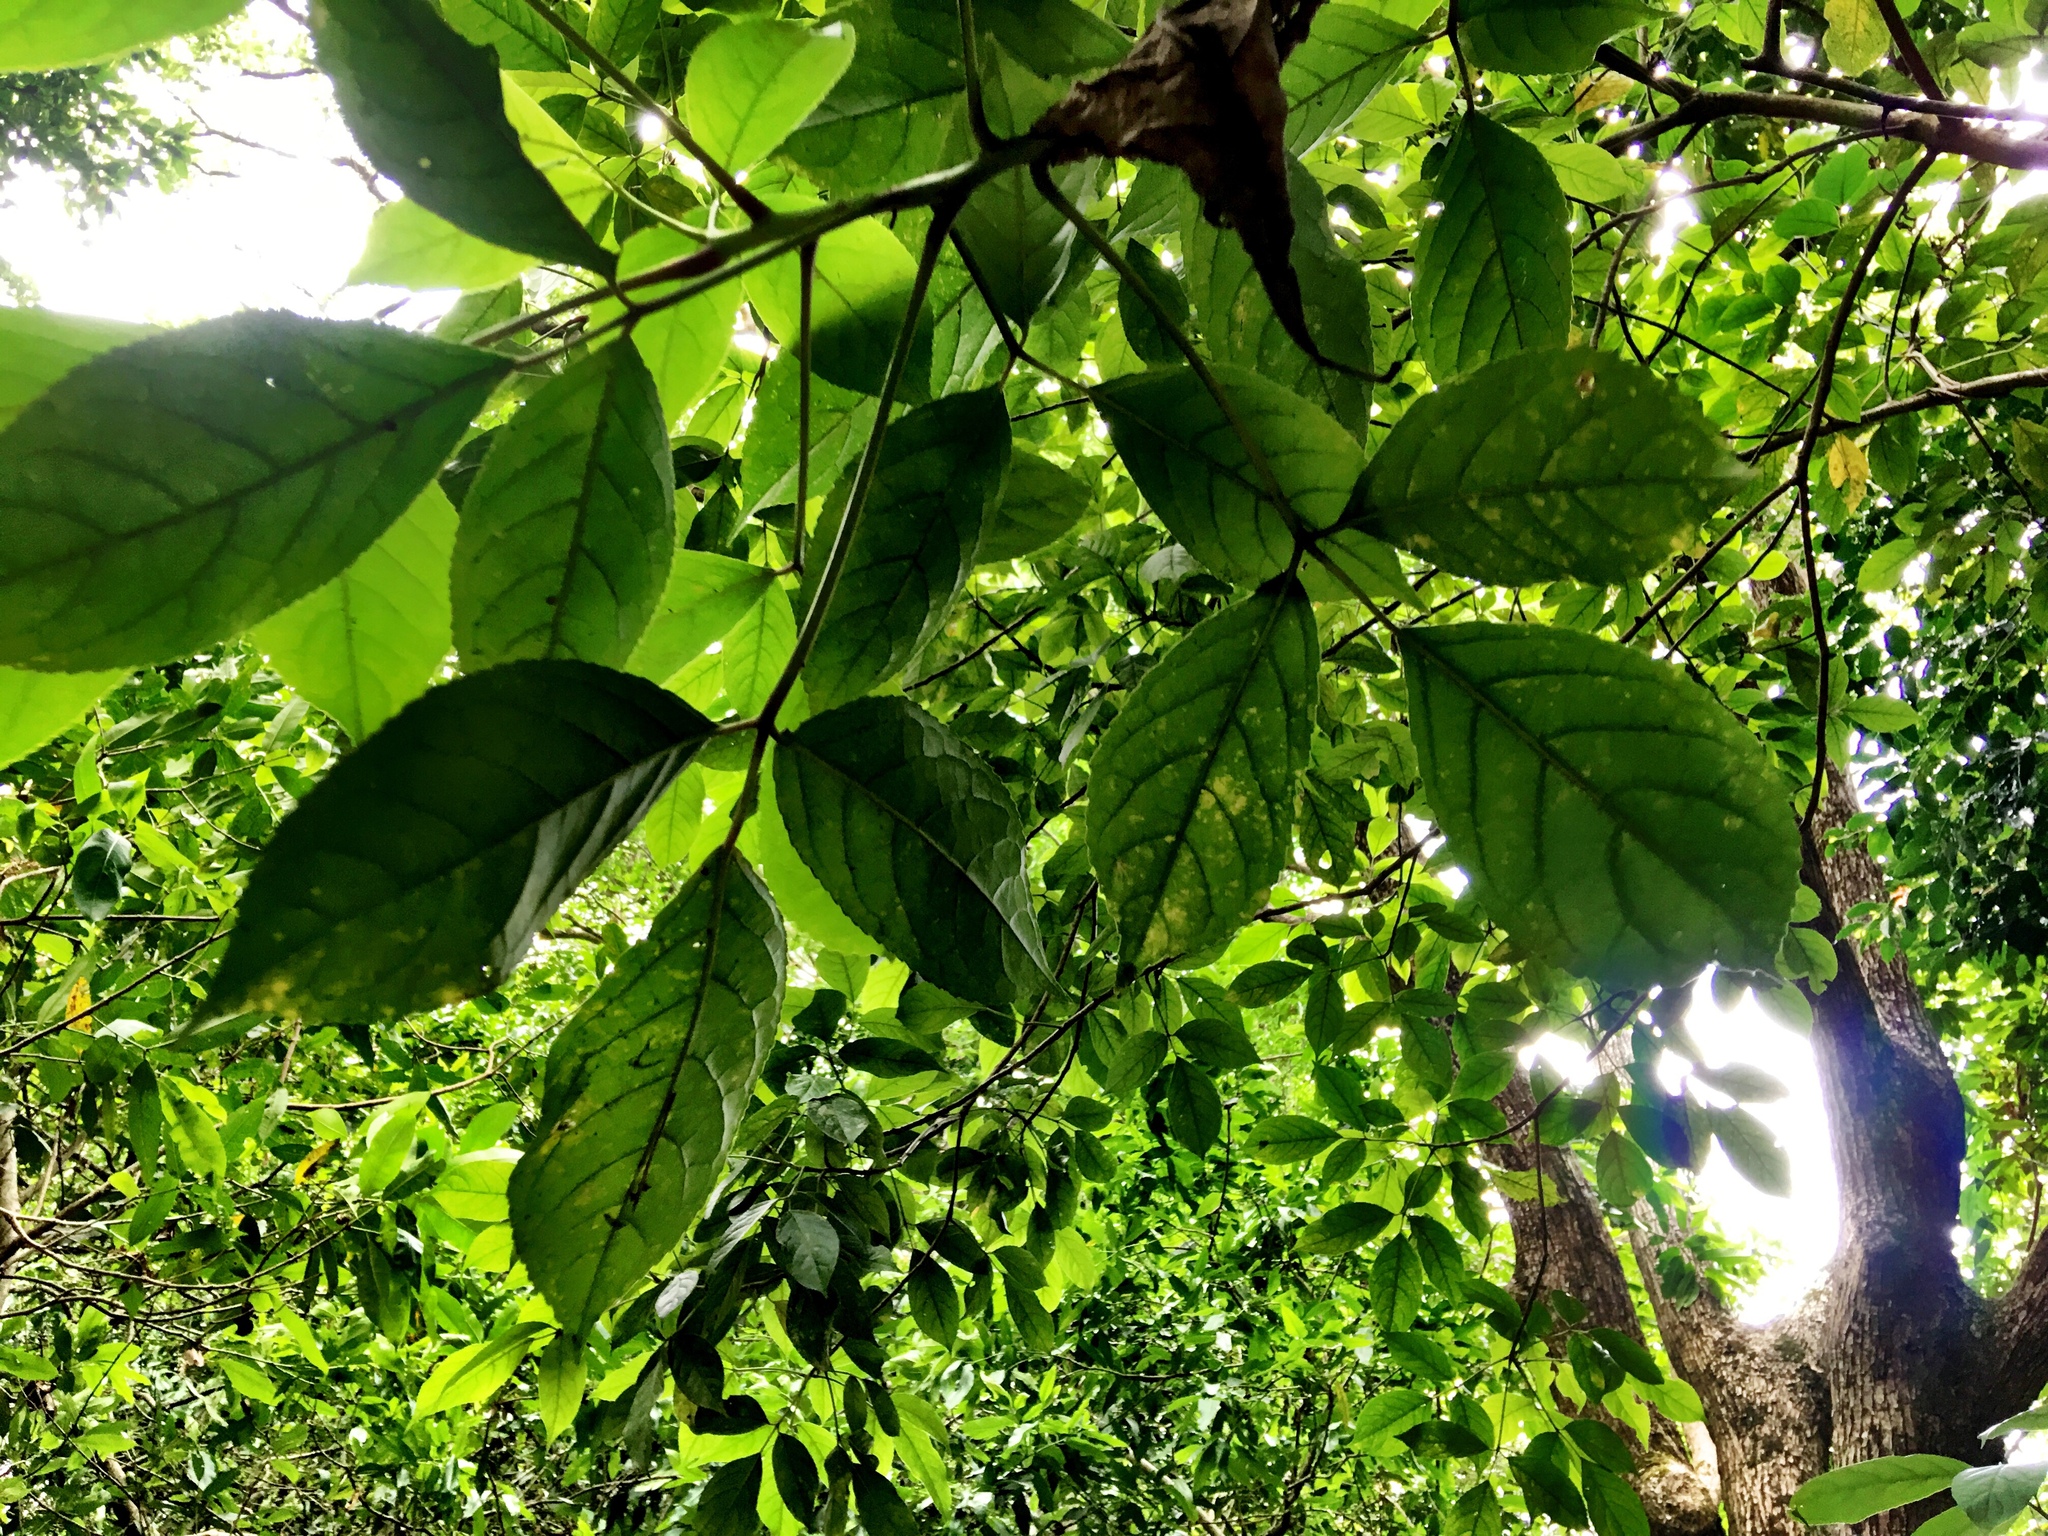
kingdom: Plantae
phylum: Tracheophyta
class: Magnoliopsida
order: Malpighiales
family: Phyllanthaceae
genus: Bischofia
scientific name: Bischofia javanica
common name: Javanese bishopwood
